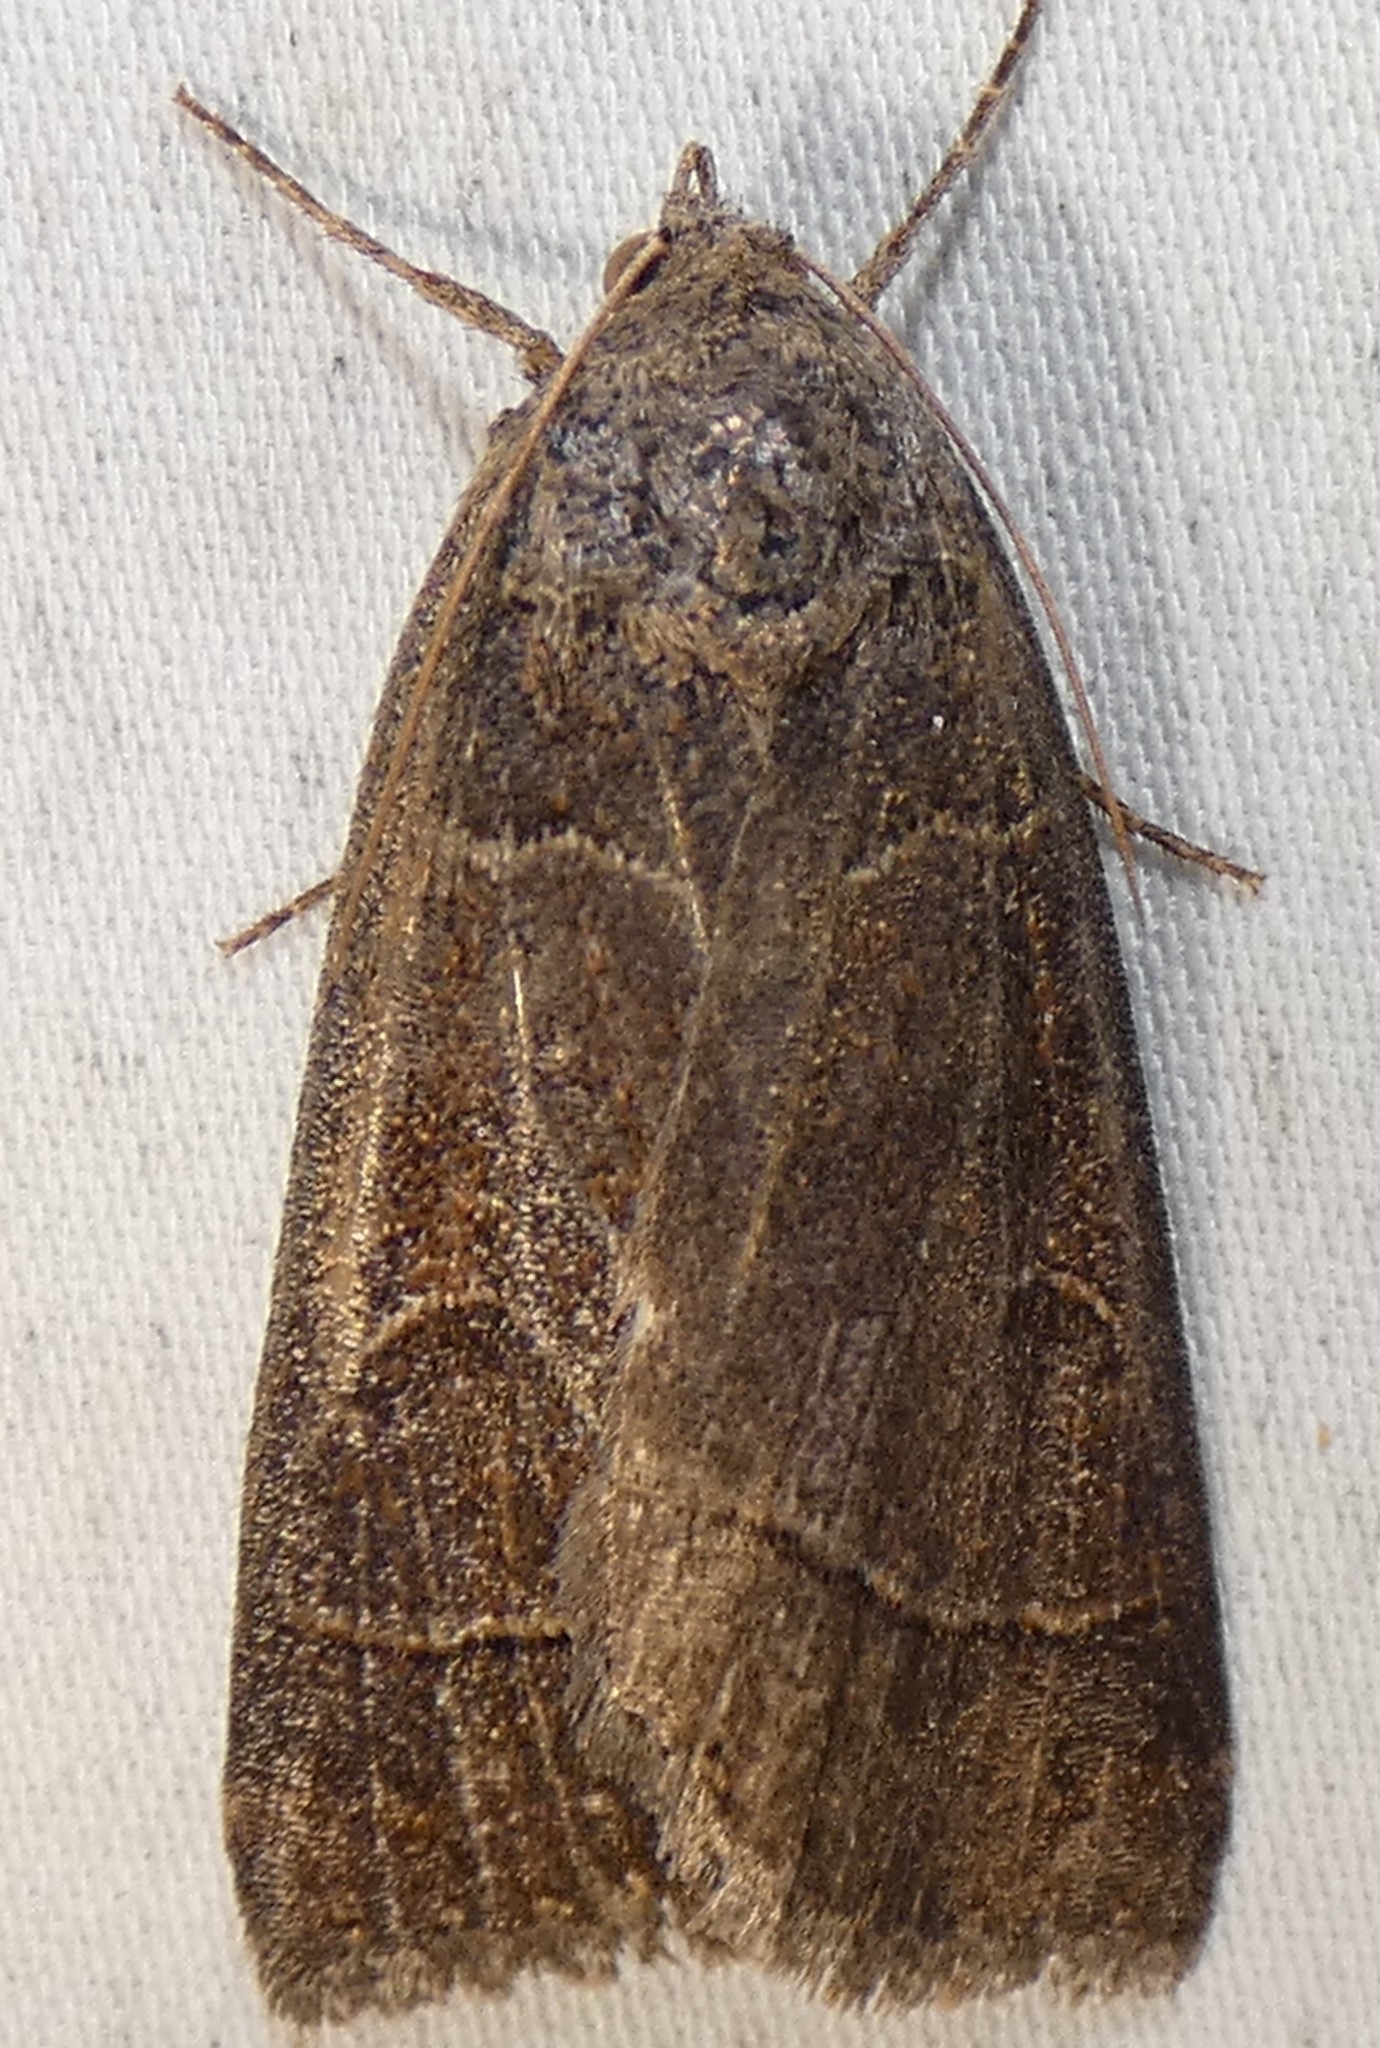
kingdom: Animalia
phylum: Arthropoda
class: Insecta
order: Lepidoptera
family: Erebidae
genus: Phoberia
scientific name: Phoberia atomaris
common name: Common oak moth
